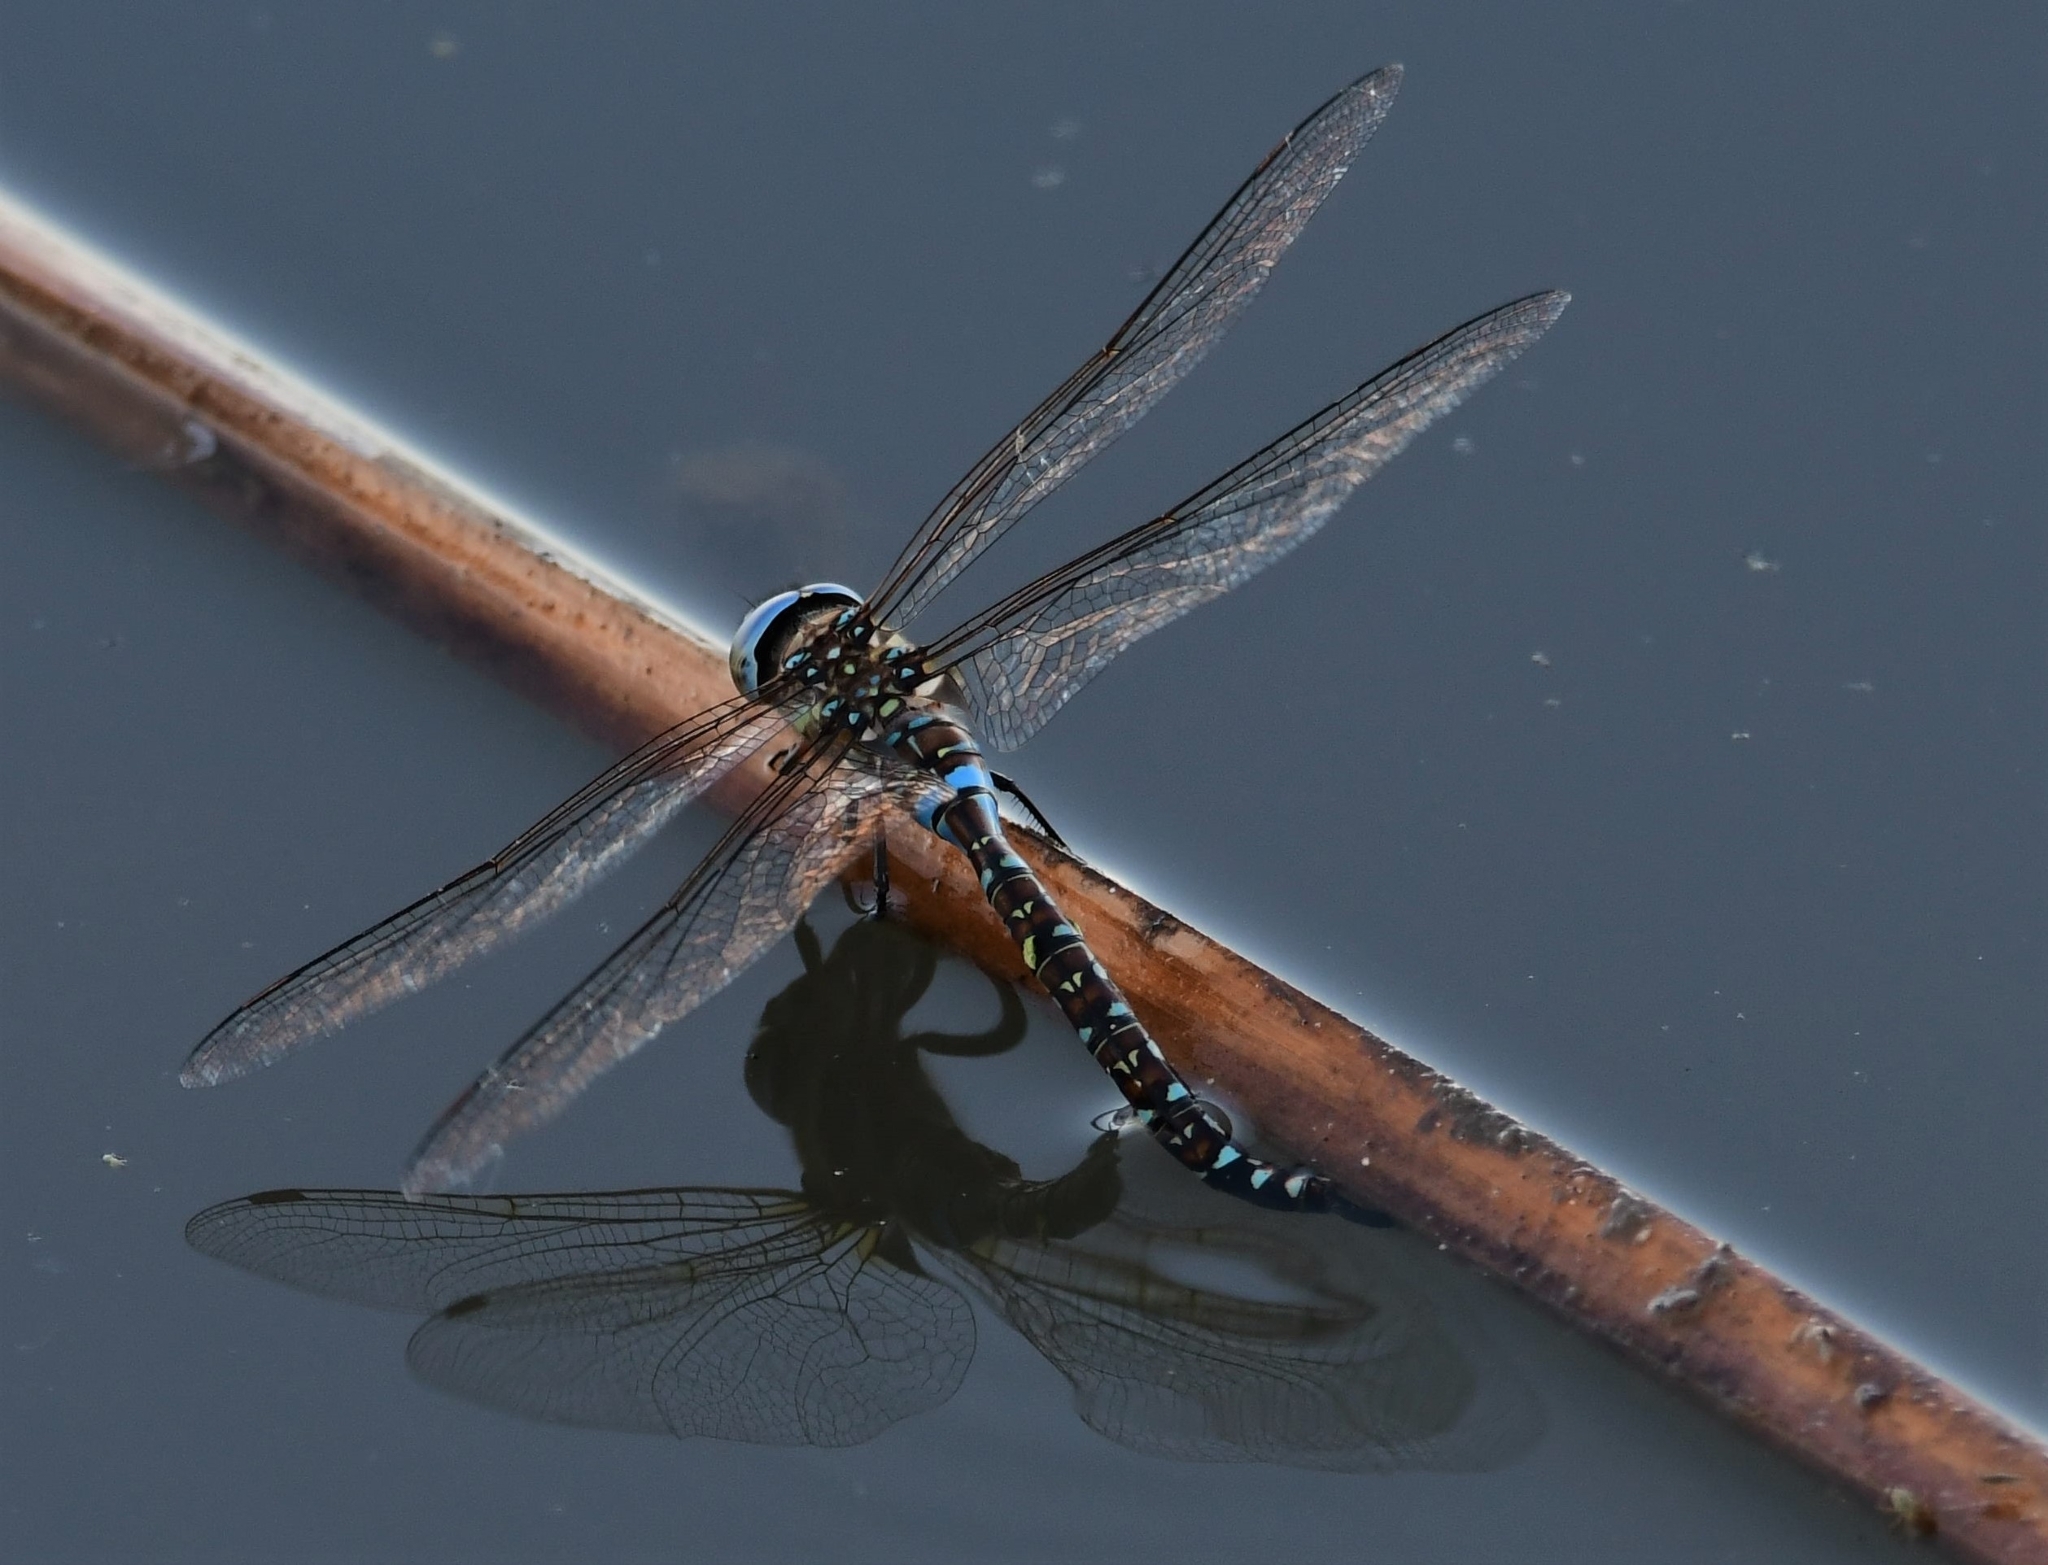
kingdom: Animalia
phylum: Arthropoda
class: Insecta
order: Odonata
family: Aeshnidae
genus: Rhionaeschna
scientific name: Rhionaeschna multicolor
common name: Blue-eyed darner
